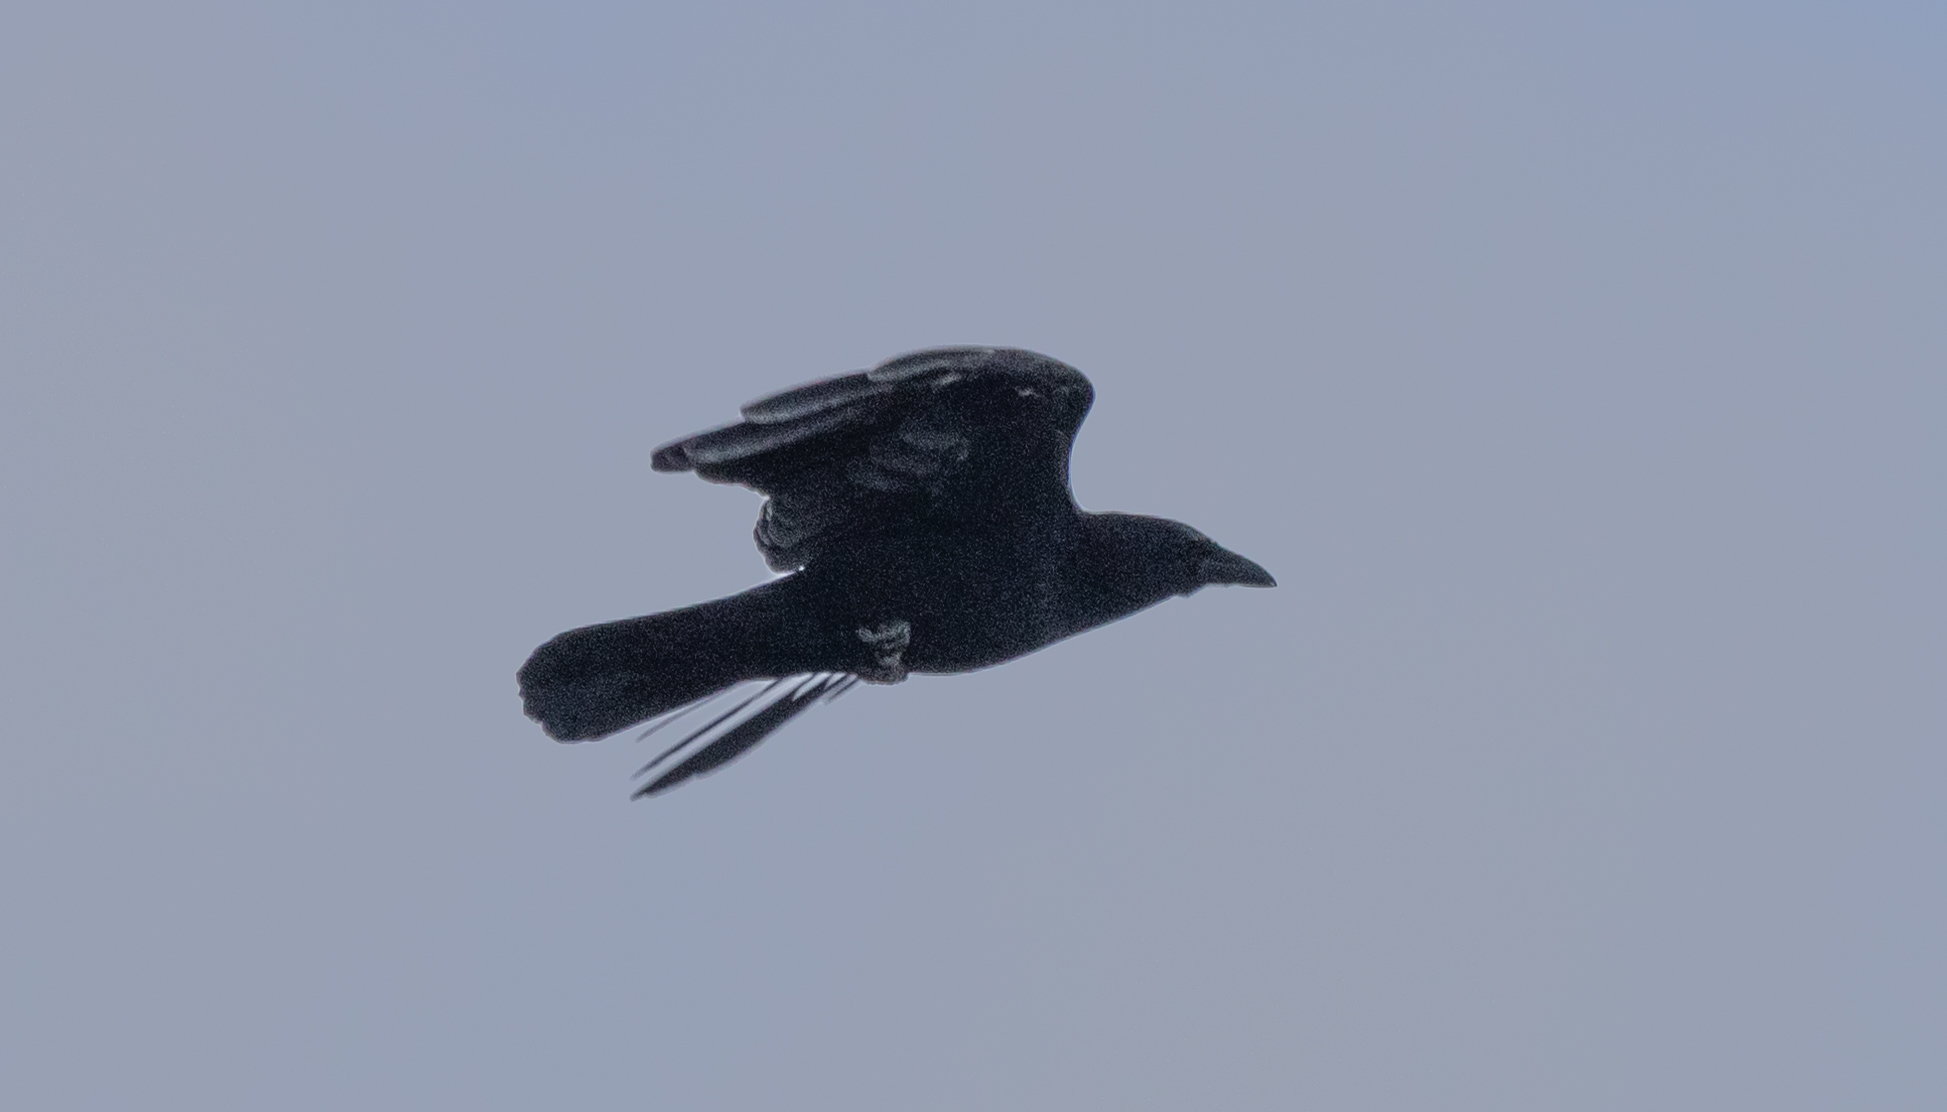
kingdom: Animalia
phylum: Chordata
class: Aves
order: Passeriformes
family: Corvidae
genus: Corvus
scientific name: Corvus brachyrhynchos
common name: American crow
